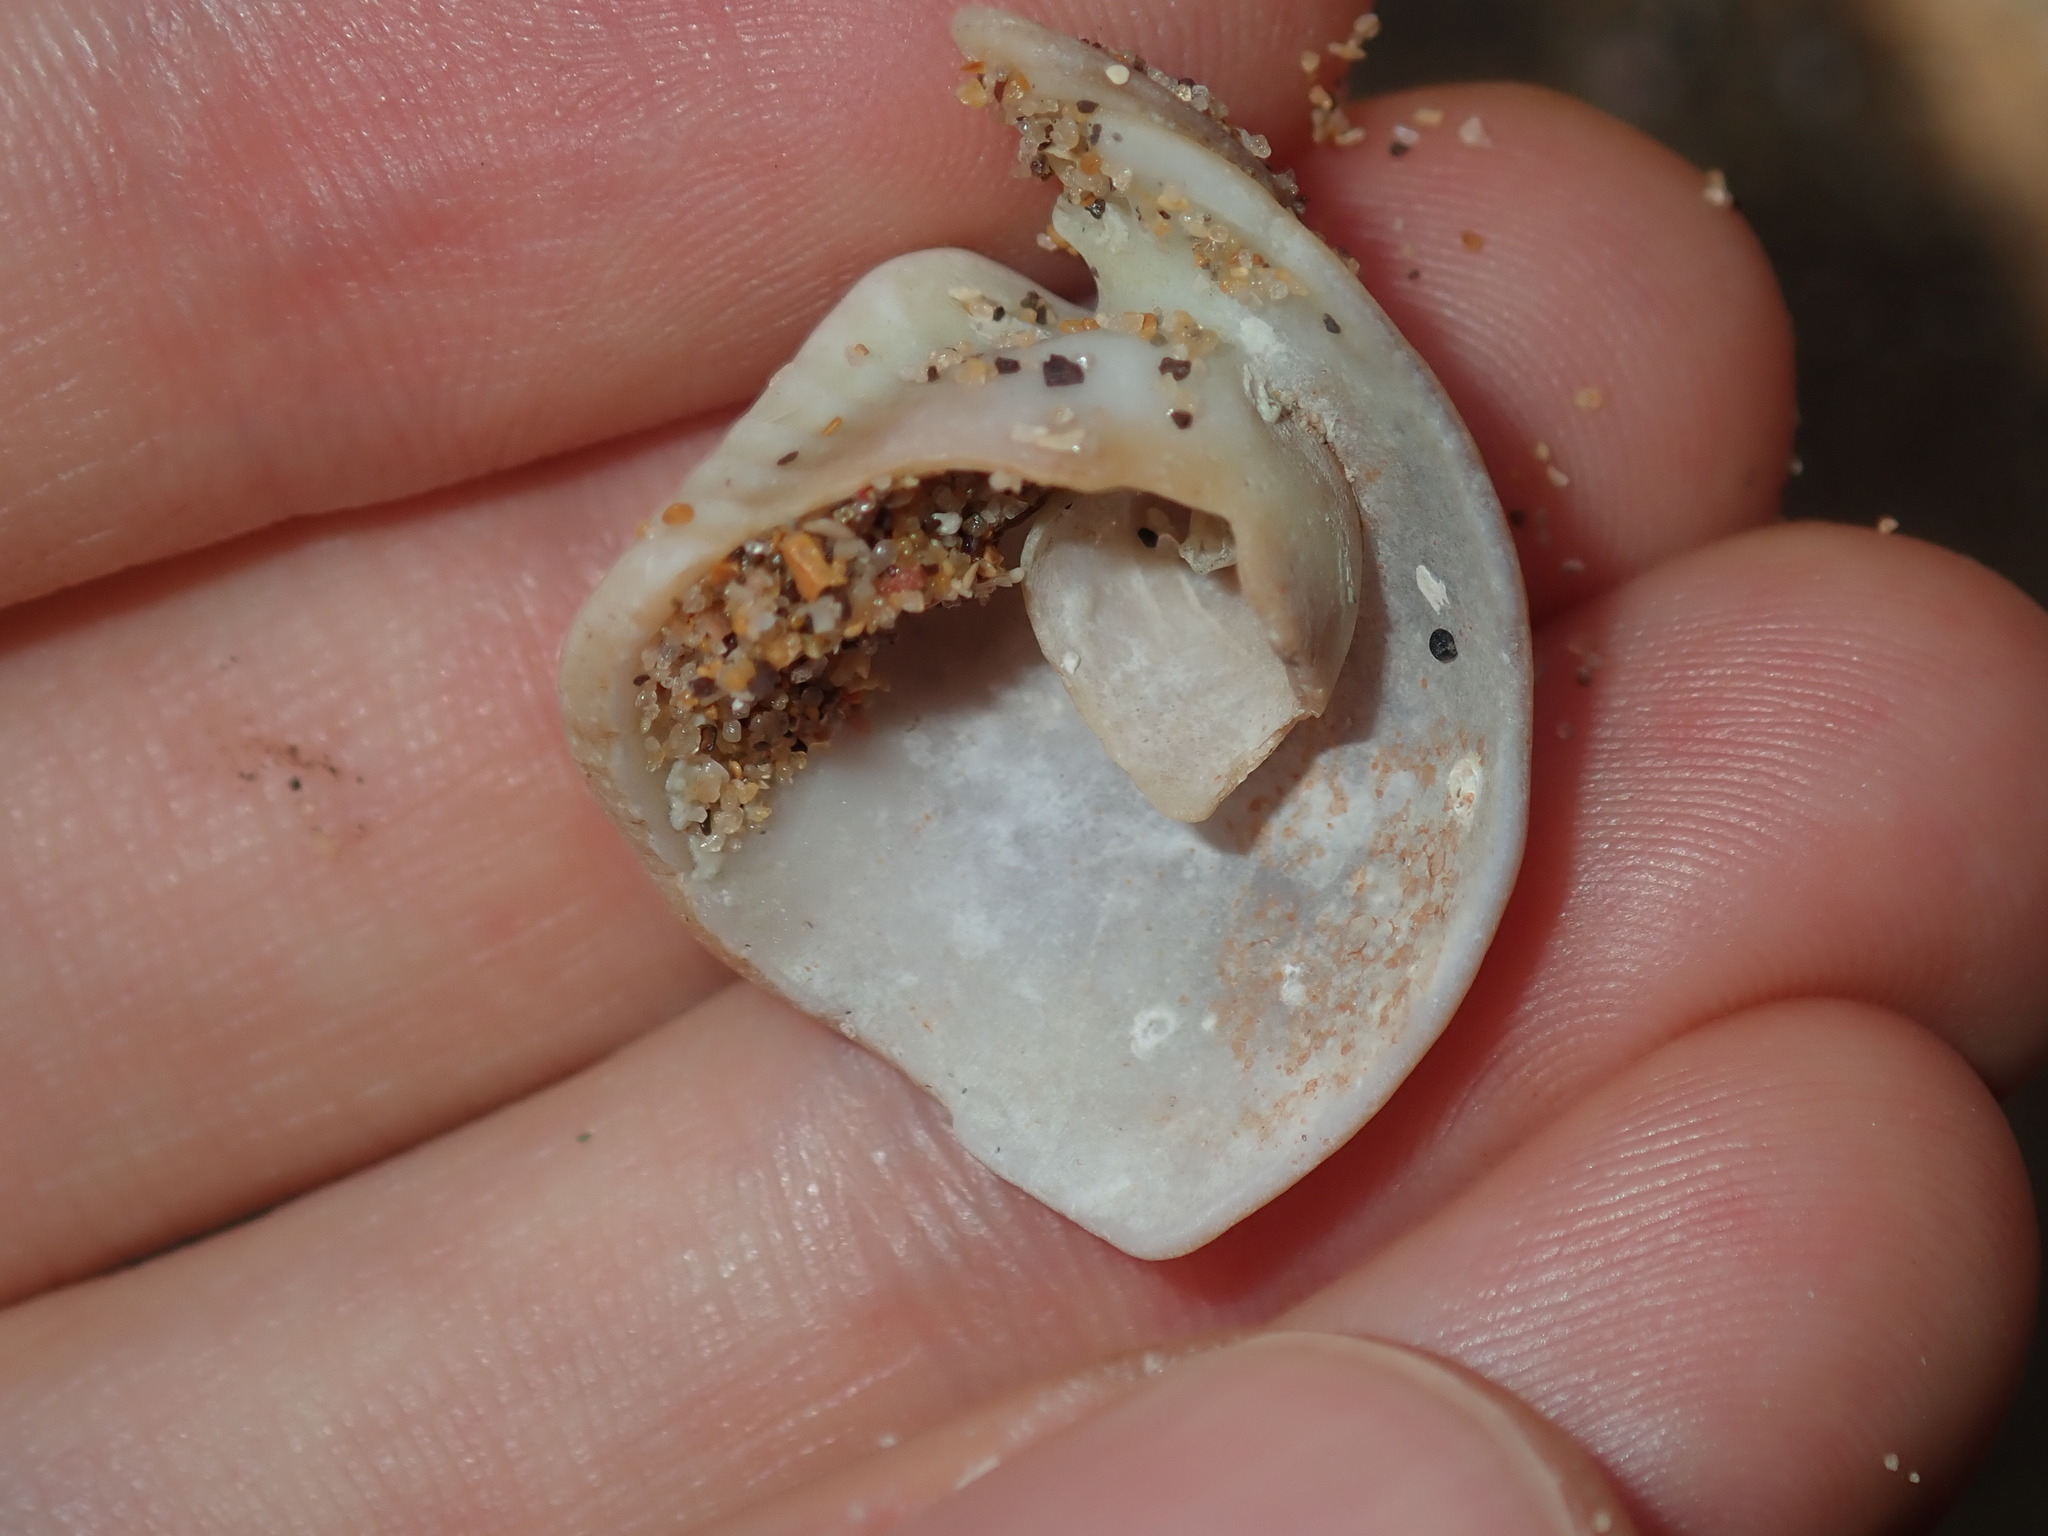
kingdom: Animalia
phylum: Mollusca
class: Gastropoda
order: Littorinimorpha
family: Cypraeidae
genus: Lyncina
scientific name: Lyncina vitellus
